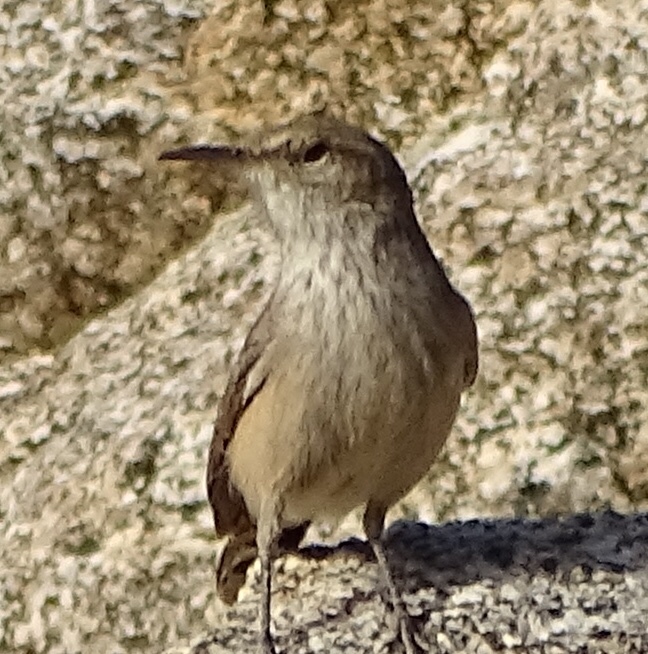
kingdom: Animalia
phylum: Chordata
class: Aves
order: Passeriformes
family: Troglodytidae
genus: Salpinctes
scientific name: Salpinctes obsoletus
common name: Rock wren
